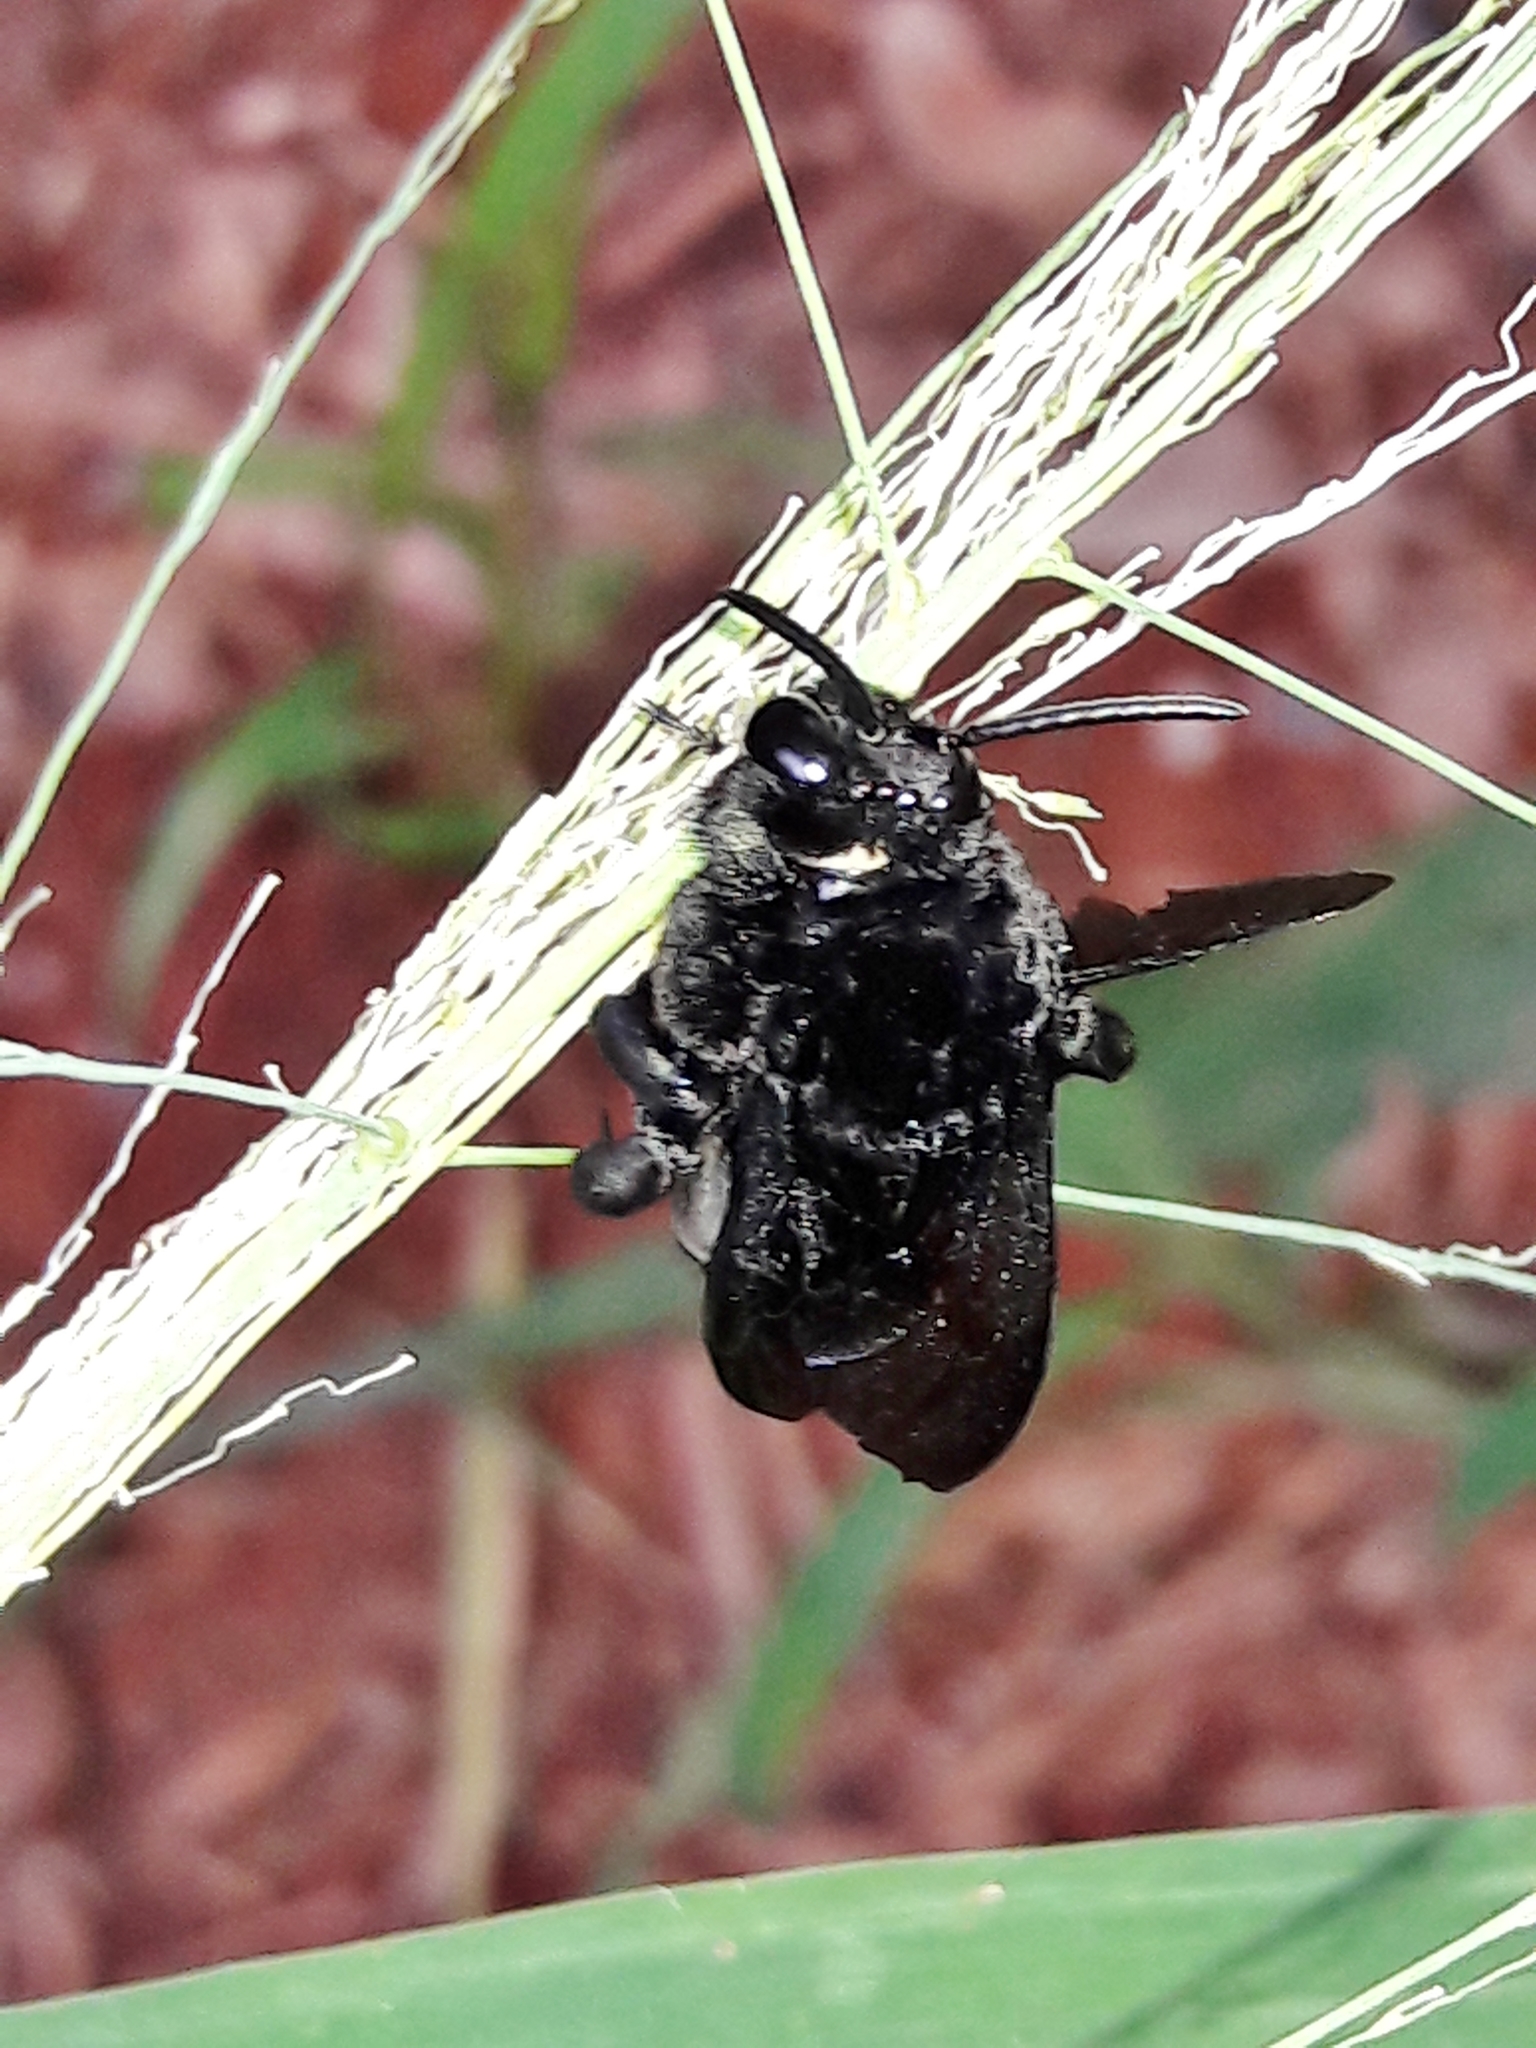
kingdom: Animalia
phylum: Arthropoda
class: Insecta
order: Hymenoptera
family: Apidae
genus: Hopliphora
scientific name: Hopliphora velutina
